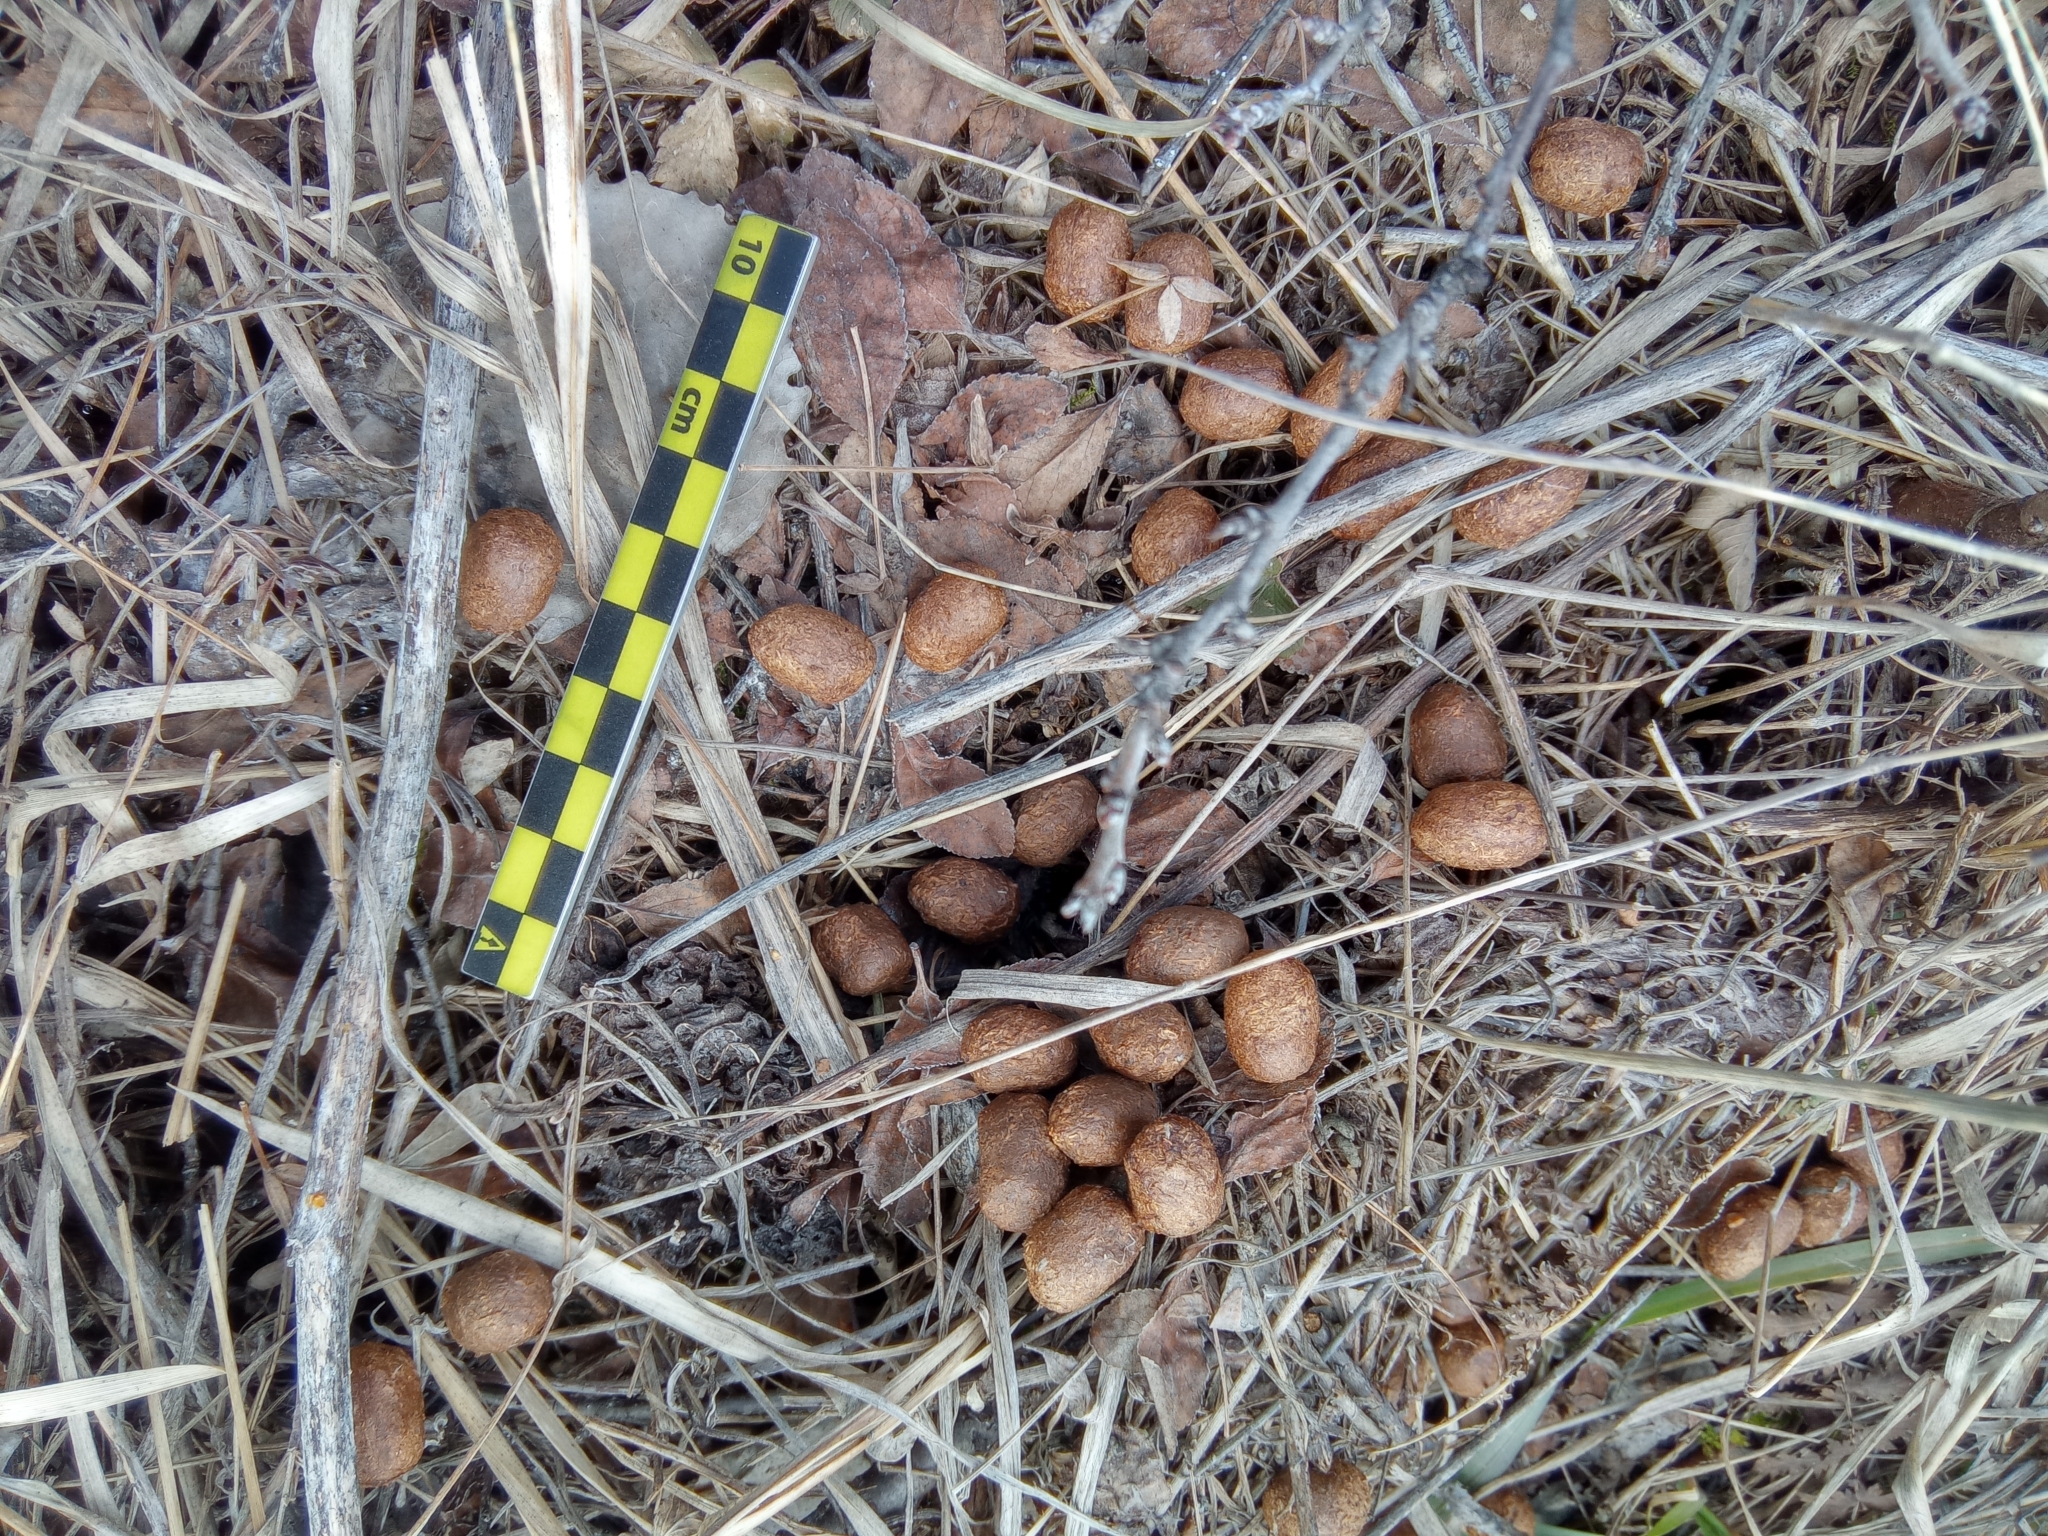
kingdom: Animalia
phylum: Chordata
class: Mammalia
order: Artiodactyla
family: Cervidae
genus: Capreolus
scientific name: Capreolus pygargus
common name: Siberian roe
